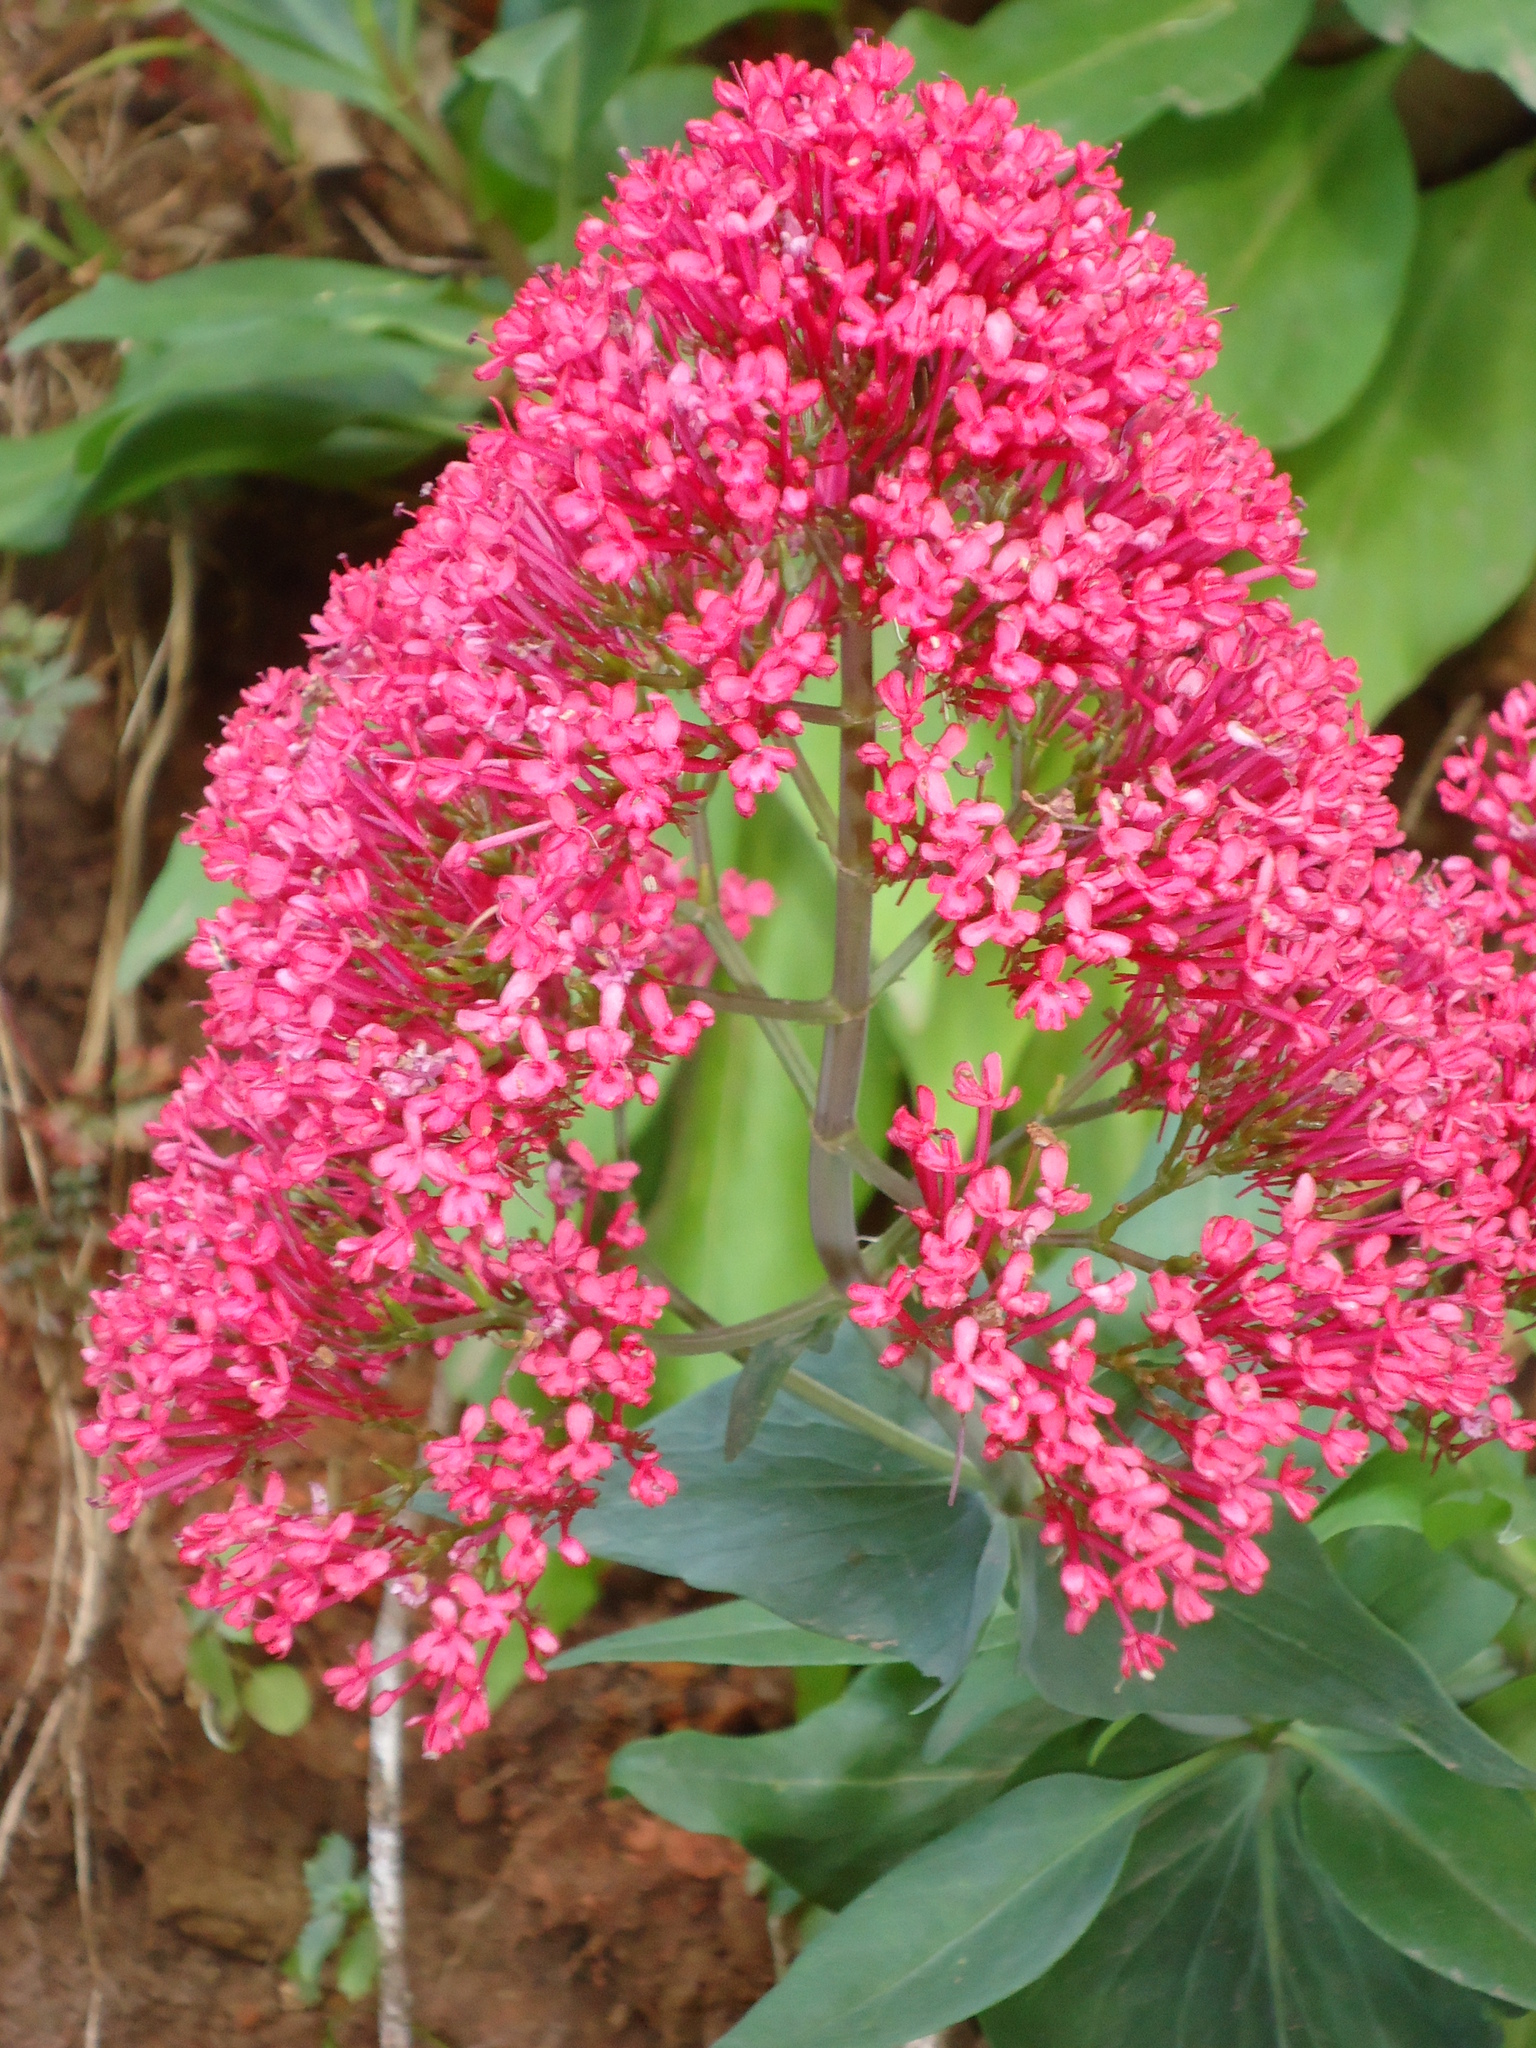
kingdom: Plantae
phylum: Tracheophyta
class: Magnoliopsida
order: Dipsacales
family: Caprifoliaceae
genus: Centranthus
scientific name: Centranthus ruber
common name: Red valerian
